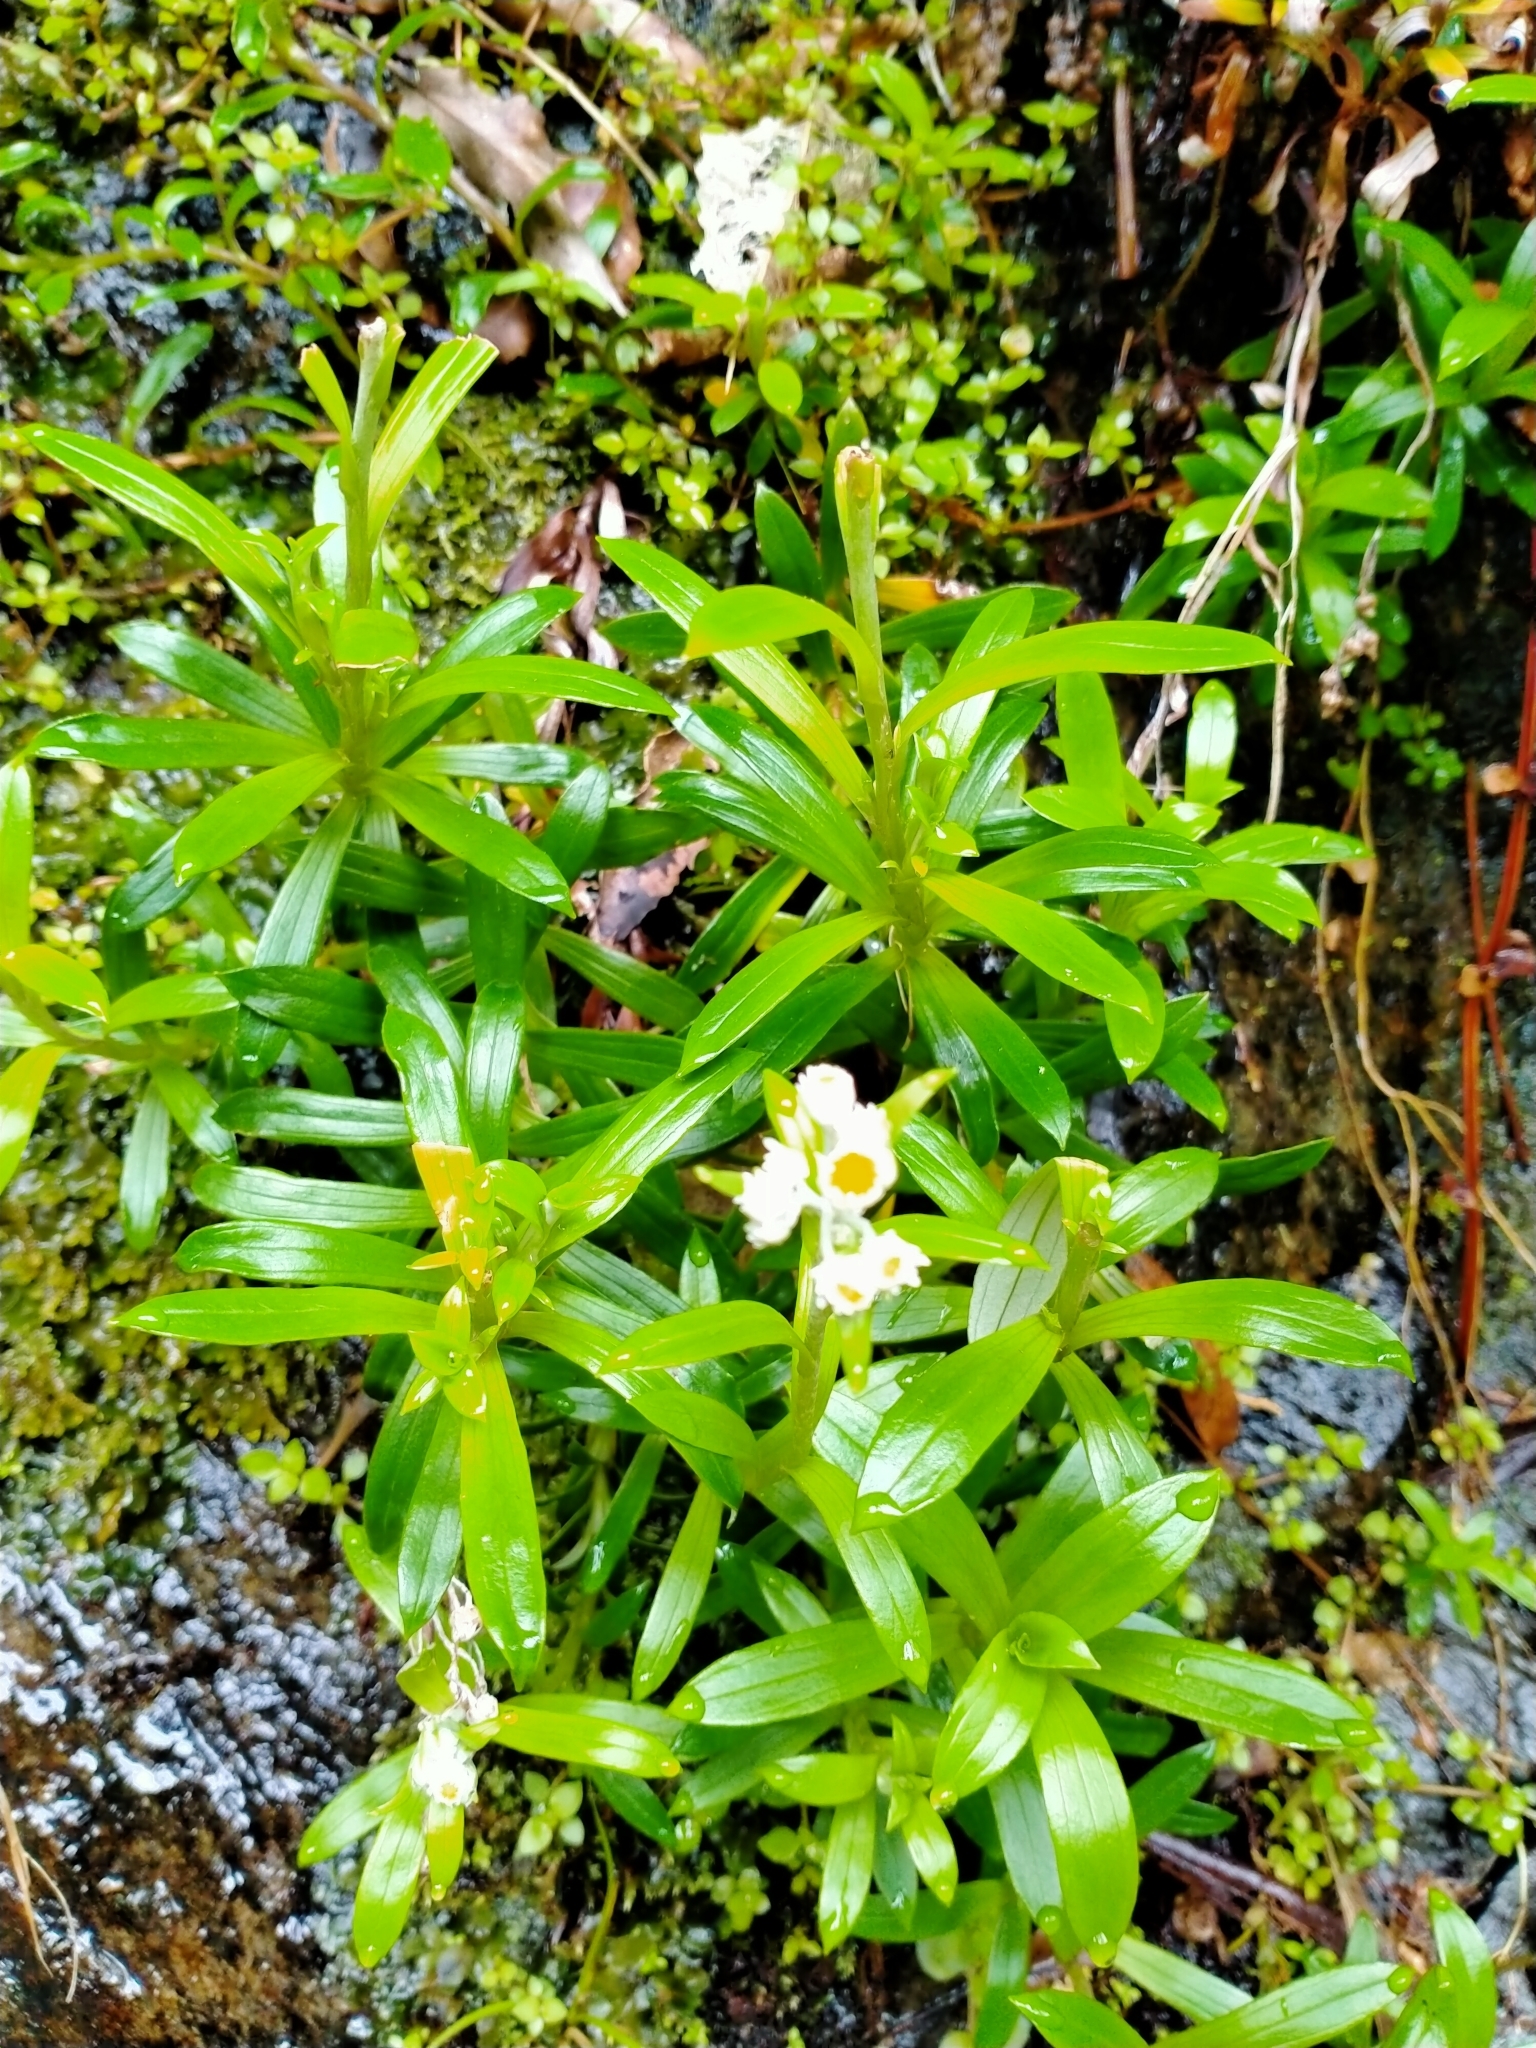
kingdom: Plantae
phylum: Tracheophyta
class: Magnoliopsida
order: Asterales
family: Asteraceae
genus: Anaphalioides
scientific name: Anaphalioides trinervis
